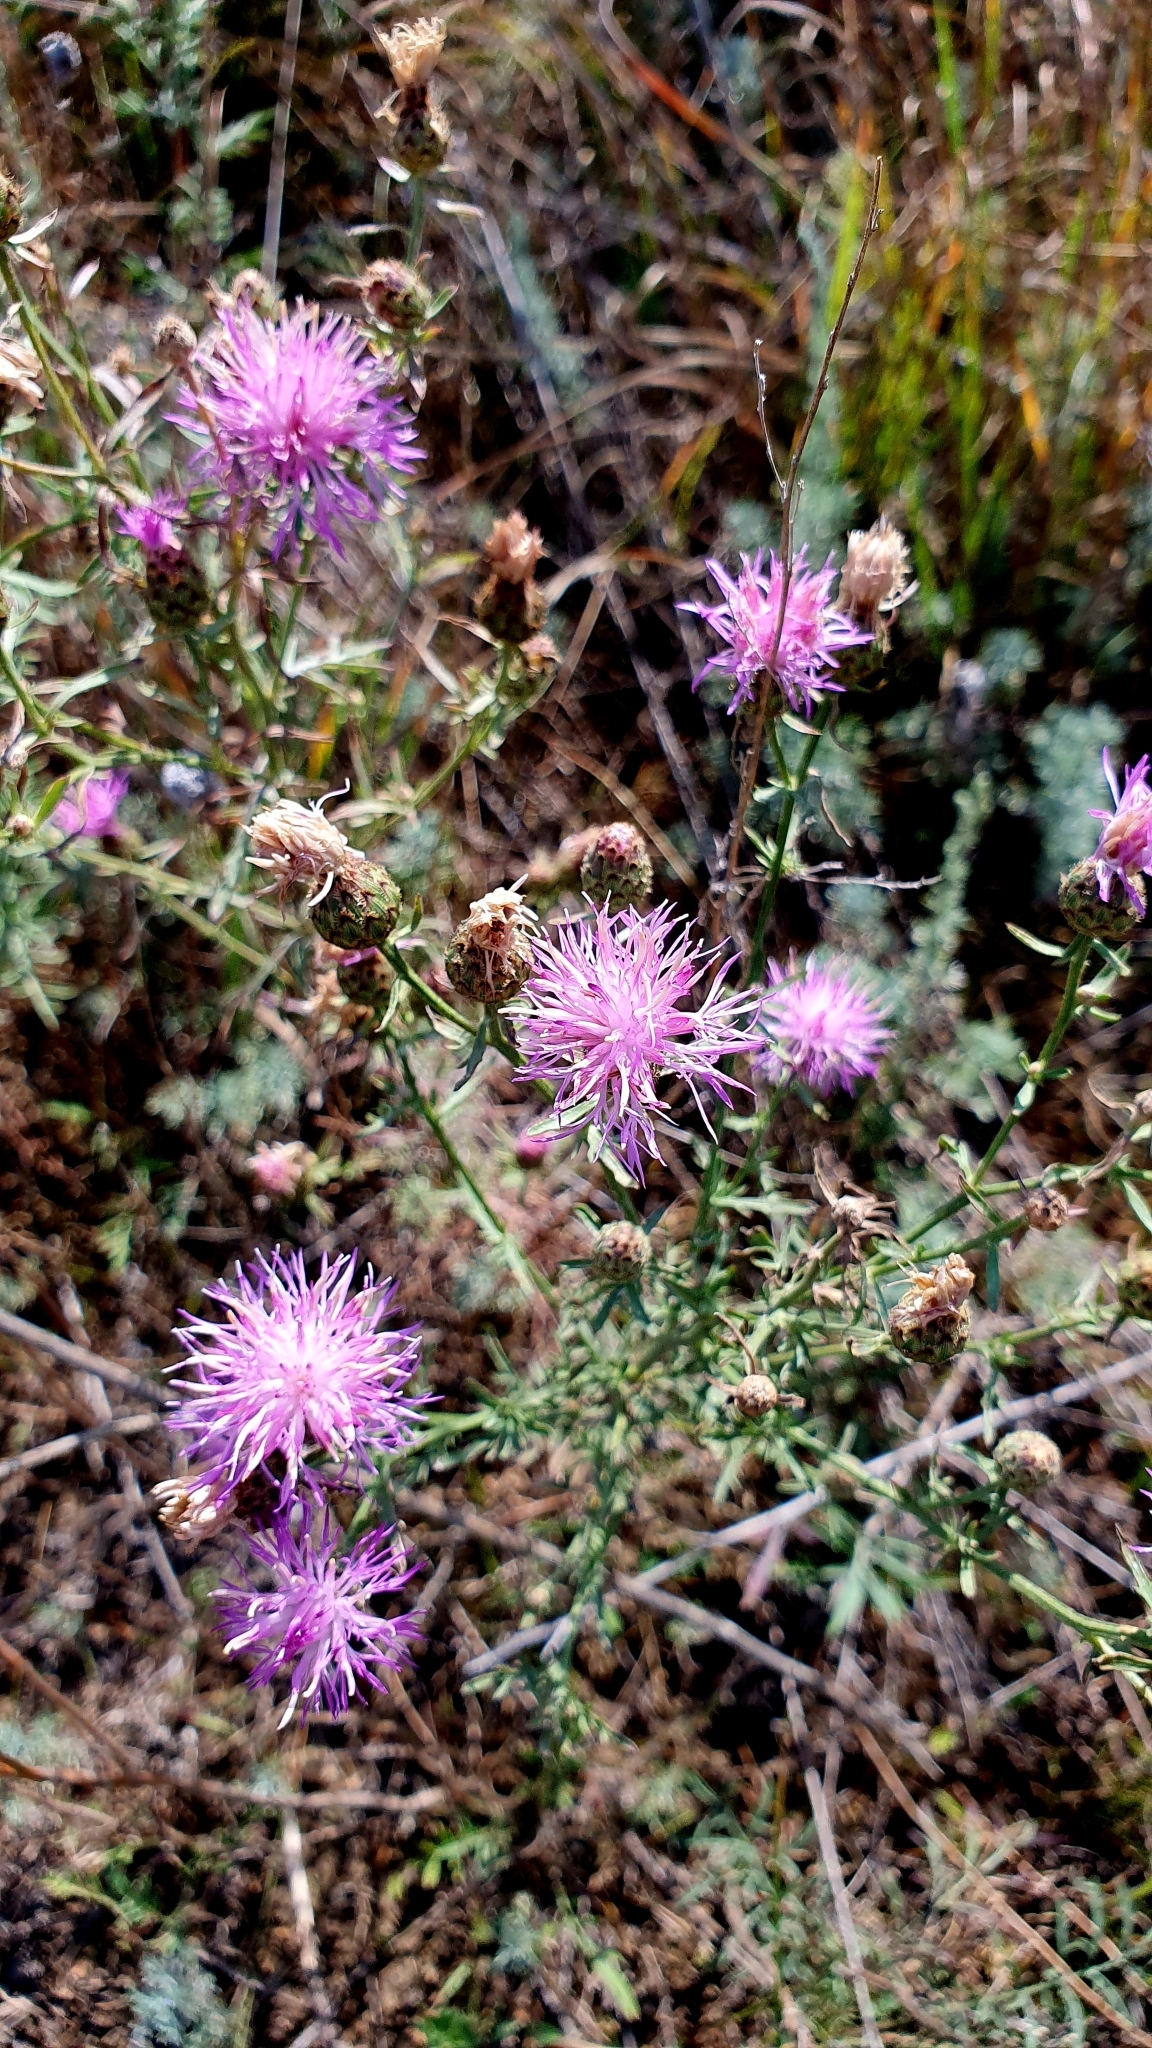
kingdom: Plantae
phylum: Tracheophyta
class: Magnoliopsida
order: Asterales
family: Asteraceae
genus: Centaurea
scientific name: Centaurea stoebe
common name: Spotted knapweed
